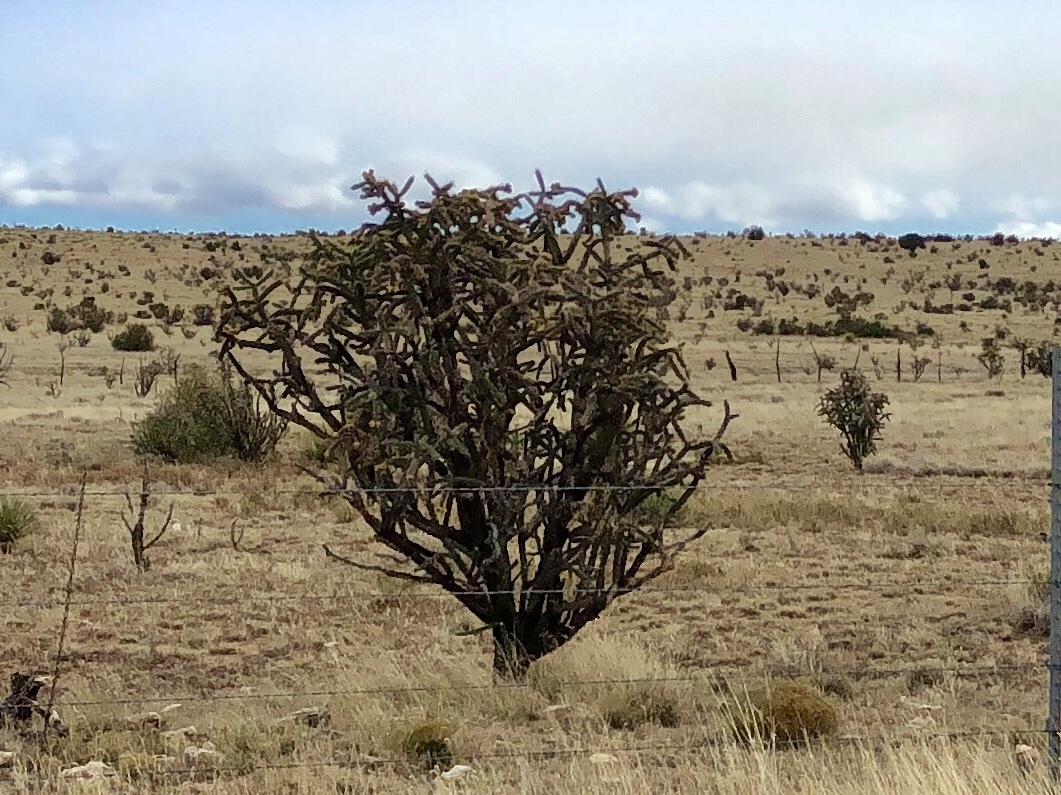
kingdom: Plantae
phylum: Tracheophyta
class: Magnoliopsida
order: Caryophyllales
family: Cactaceae
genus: Cylindropuntia
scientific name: Cylindropuntia imbricata
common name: Candelabrum cactus
